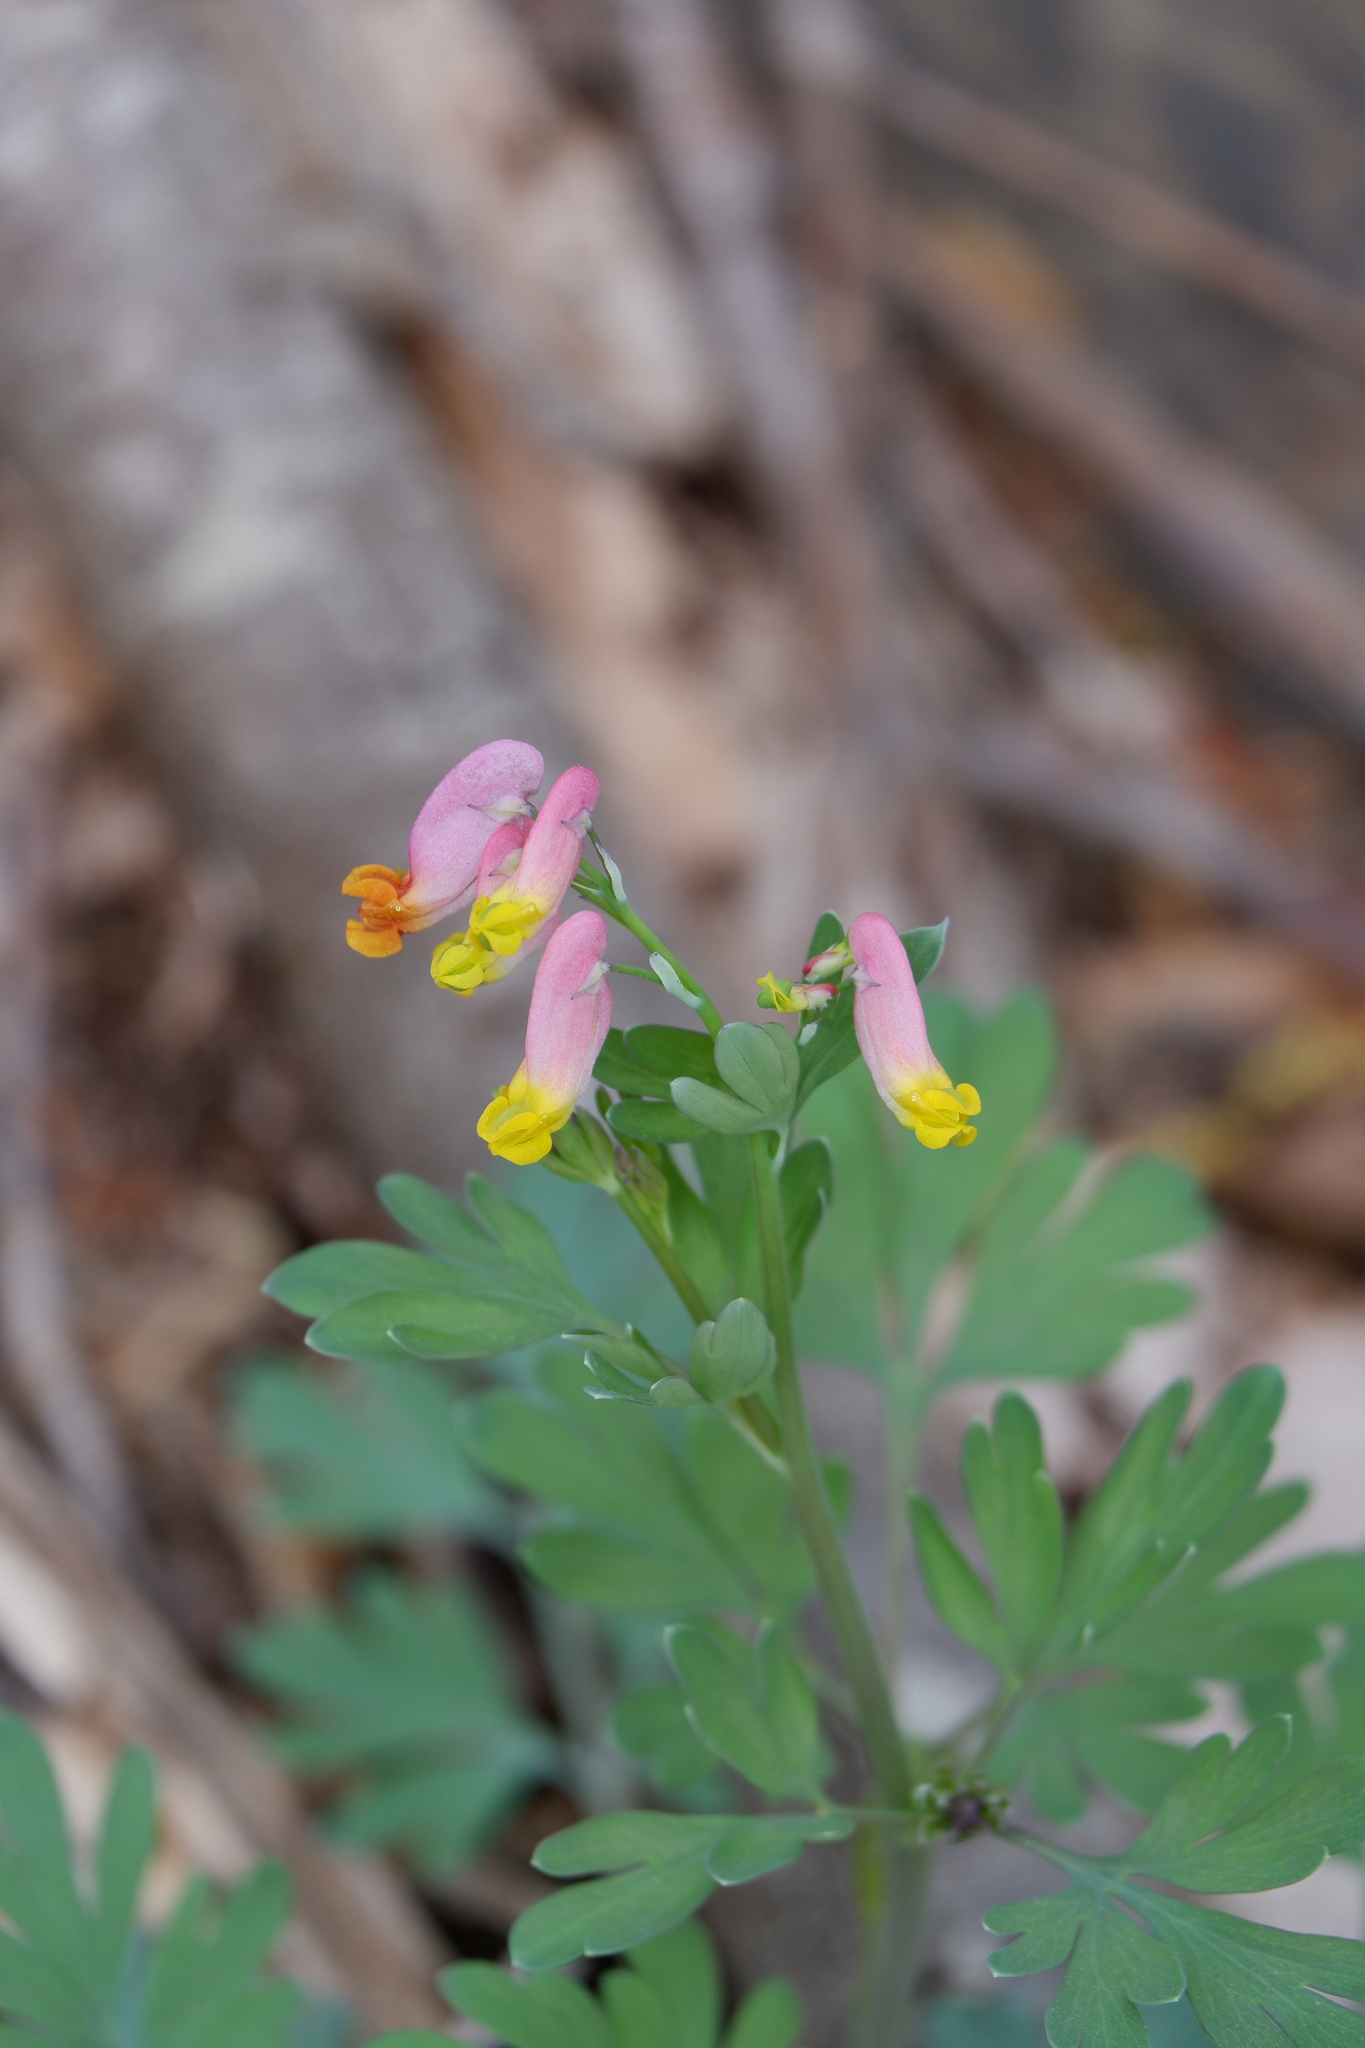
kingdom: Plantae
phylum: Tracheophyta
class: Magnoliopsida
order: Ranunculales
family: Papaveraceae
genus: Capnoides
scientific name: Capnoides sempervirens
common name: Rock harlequin
